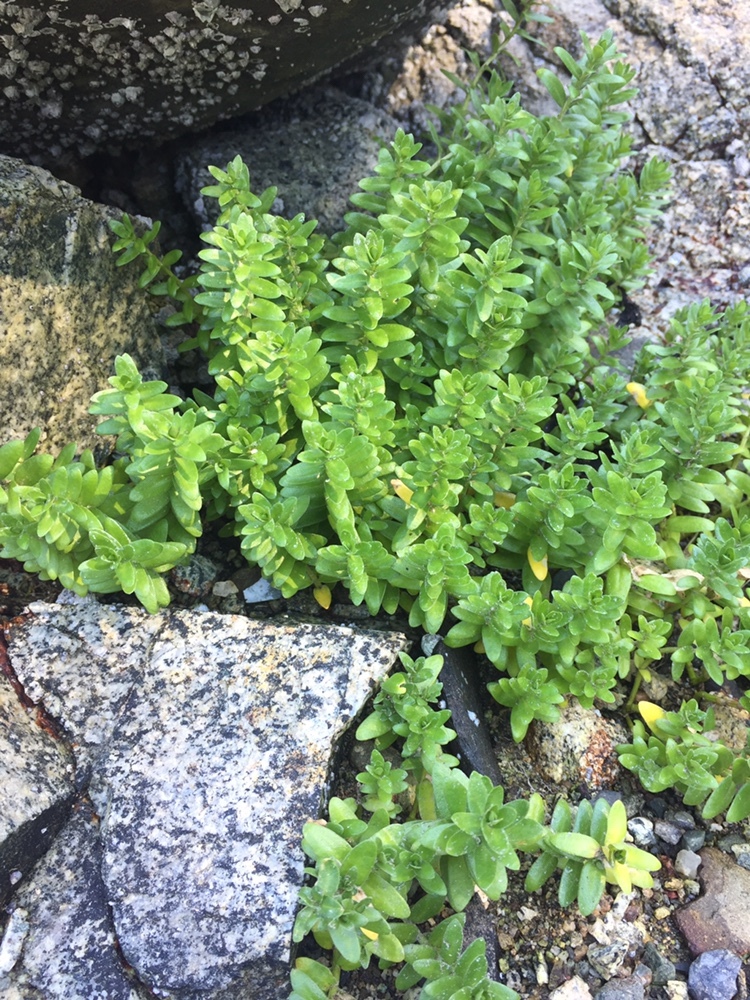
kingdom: Plantae
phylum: Tracheophyta
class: Magnoliopsida
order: Ericales
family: Primulaceae
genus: Lysimachia
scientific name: Lysimachia maritima
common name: Sea milkwort
